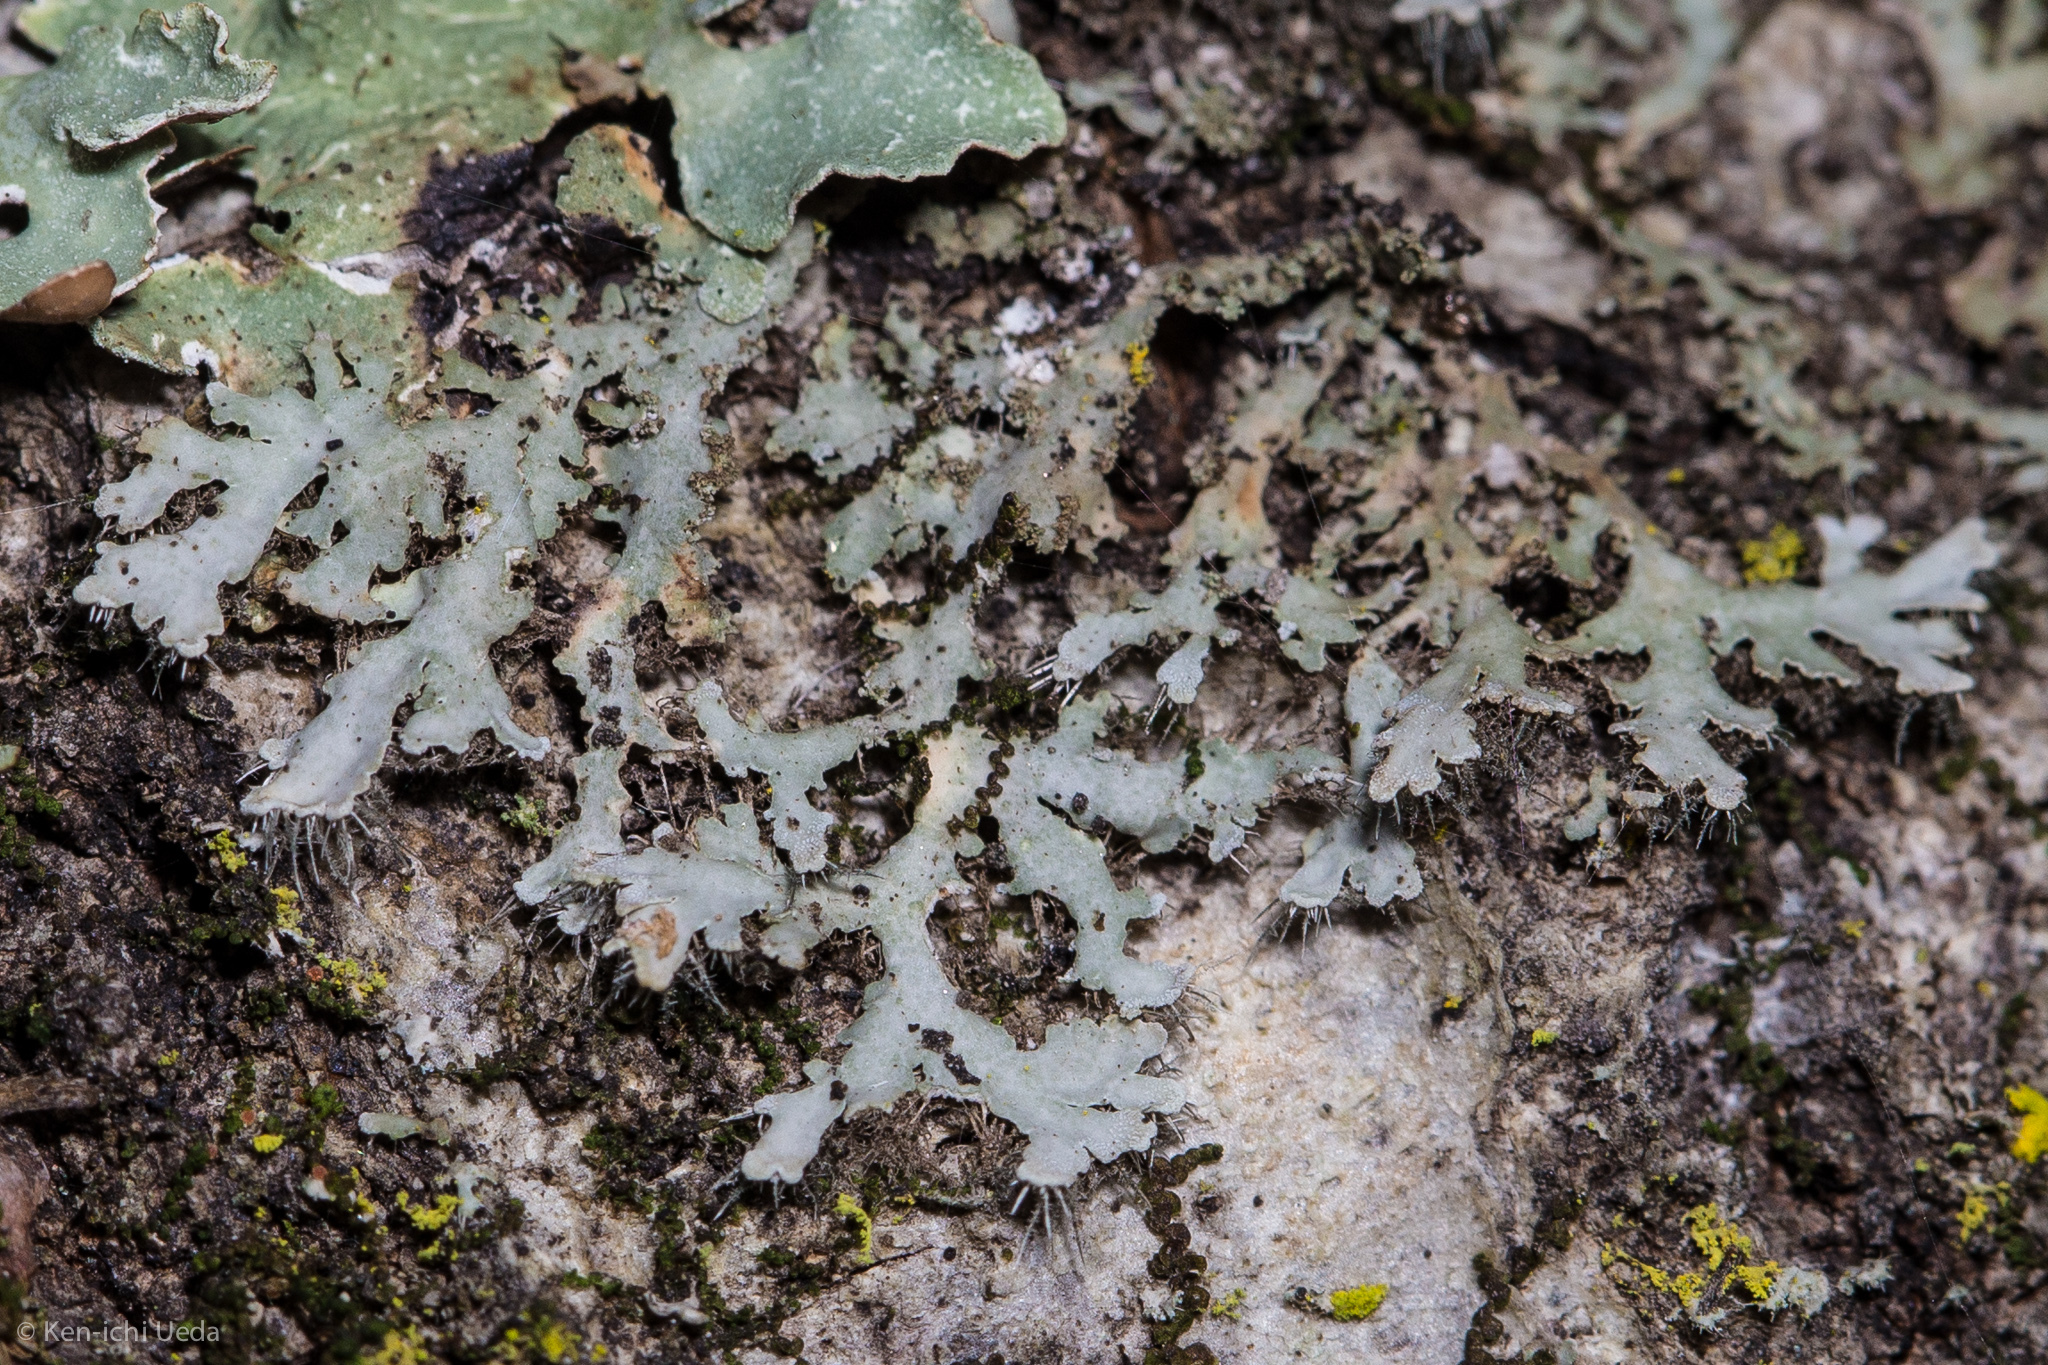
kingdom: Fungi
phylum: Ascomycota
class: Lecanoromycetes
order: Caliciales
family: Physciaceae
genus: Physconia
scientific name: Physconia isidiigera
